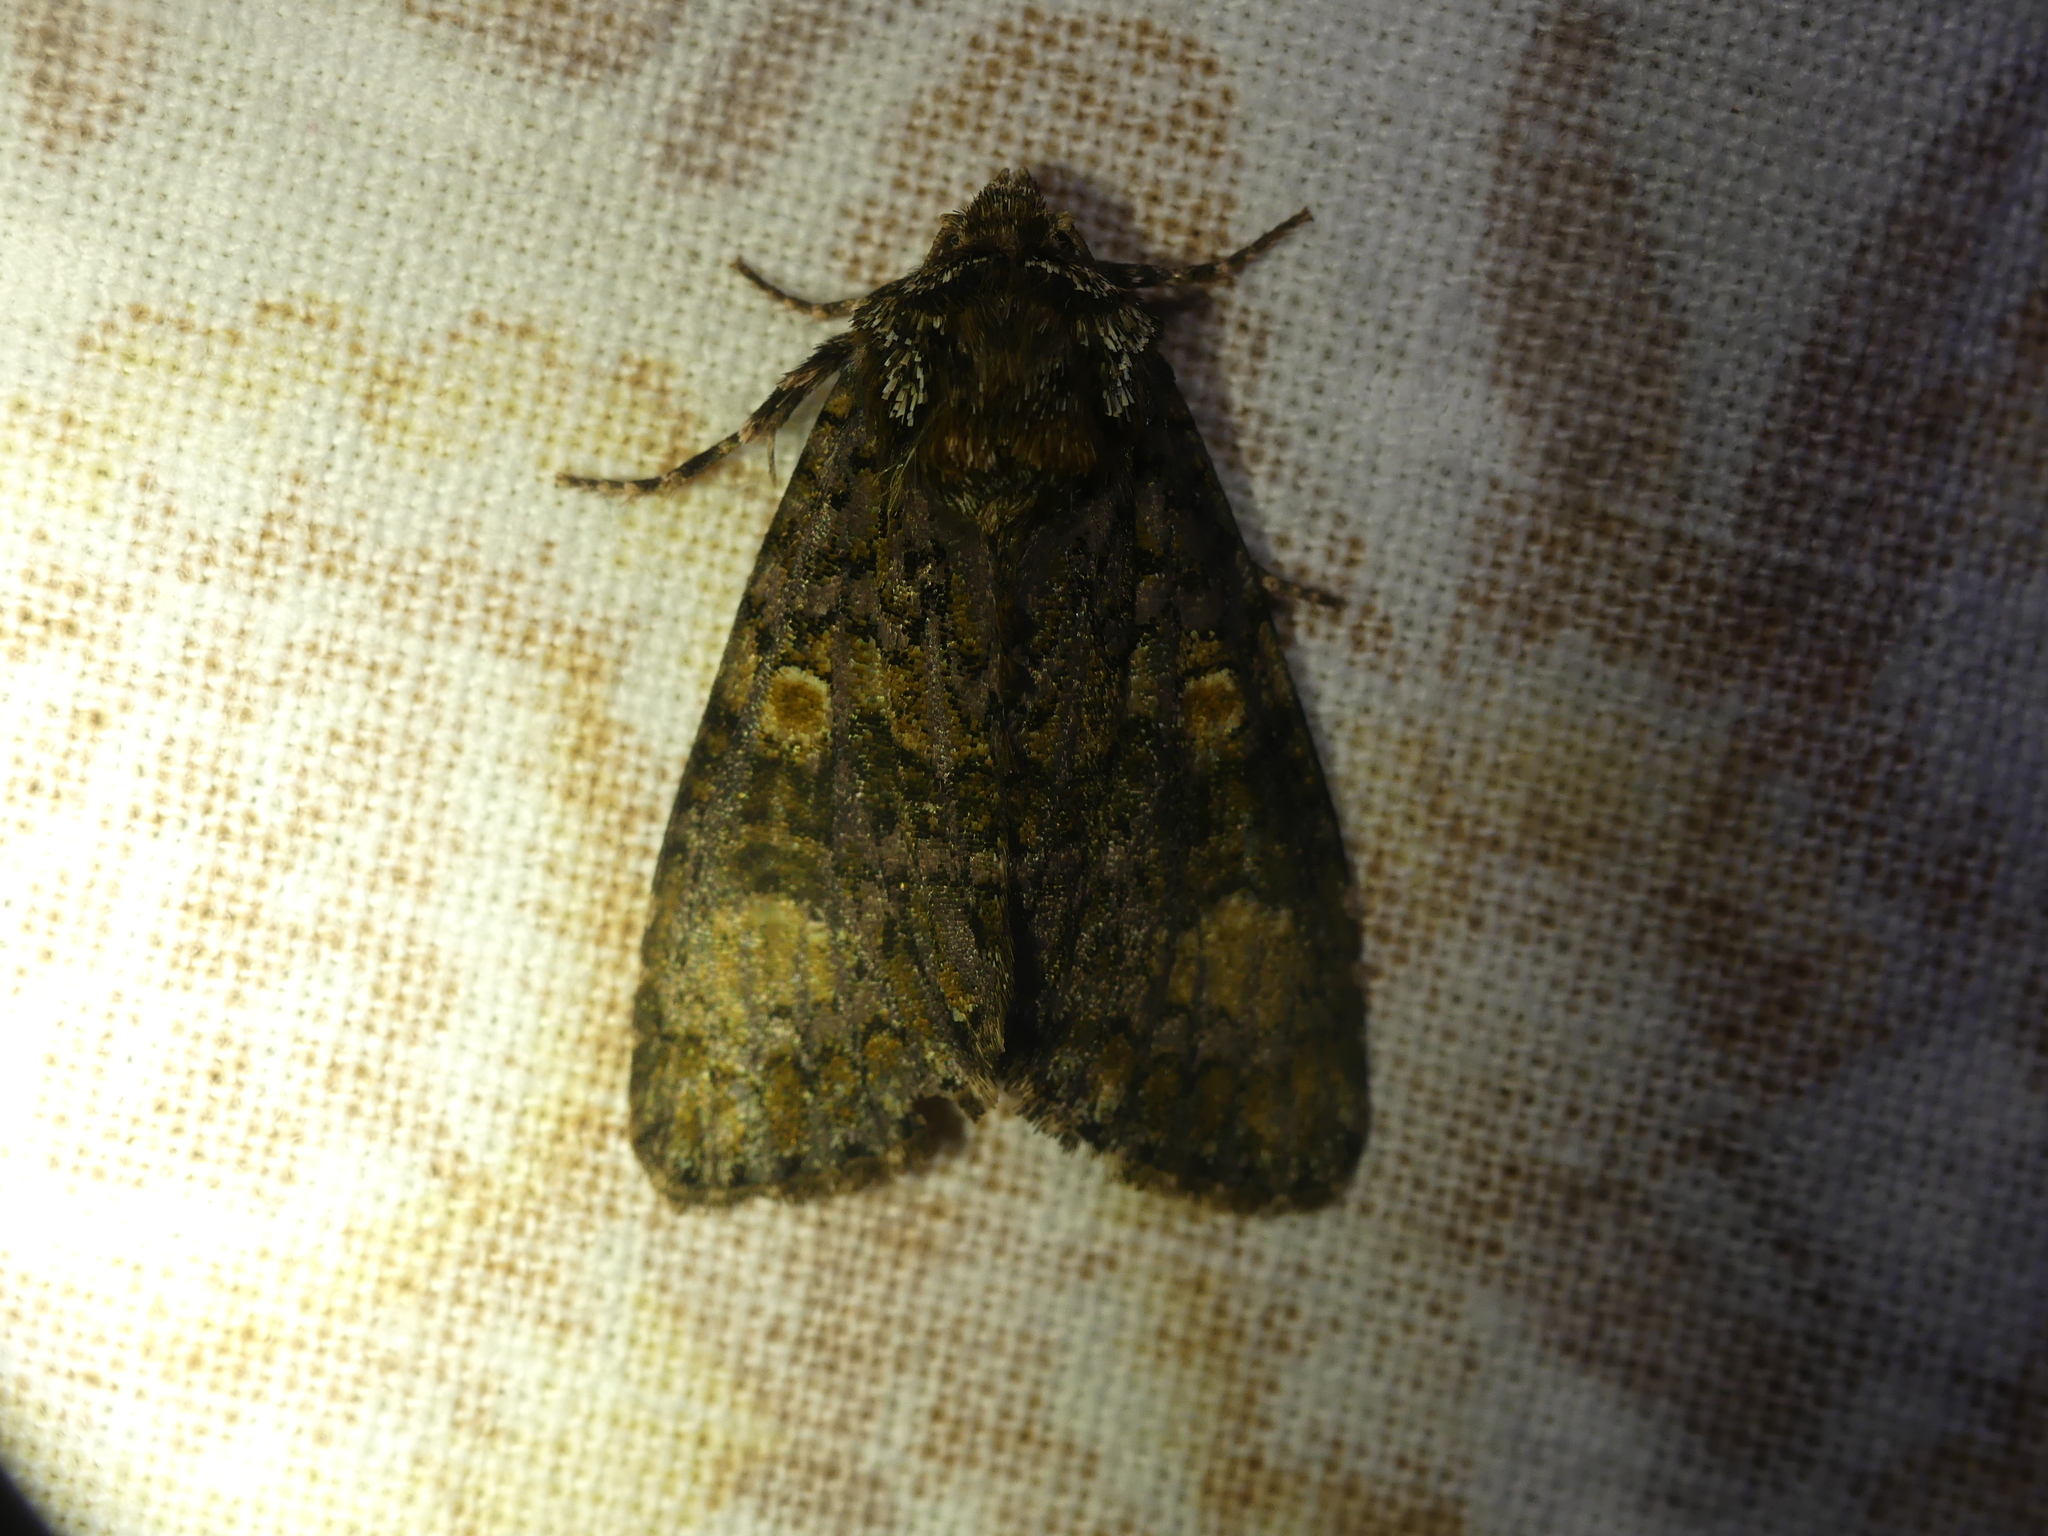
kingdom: Animalia
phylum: Arthropoda
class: Insecta
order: Lepidoptera
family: Noctuidae
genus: Craniophora
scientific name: Craniophora ligustri
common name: Coronet
